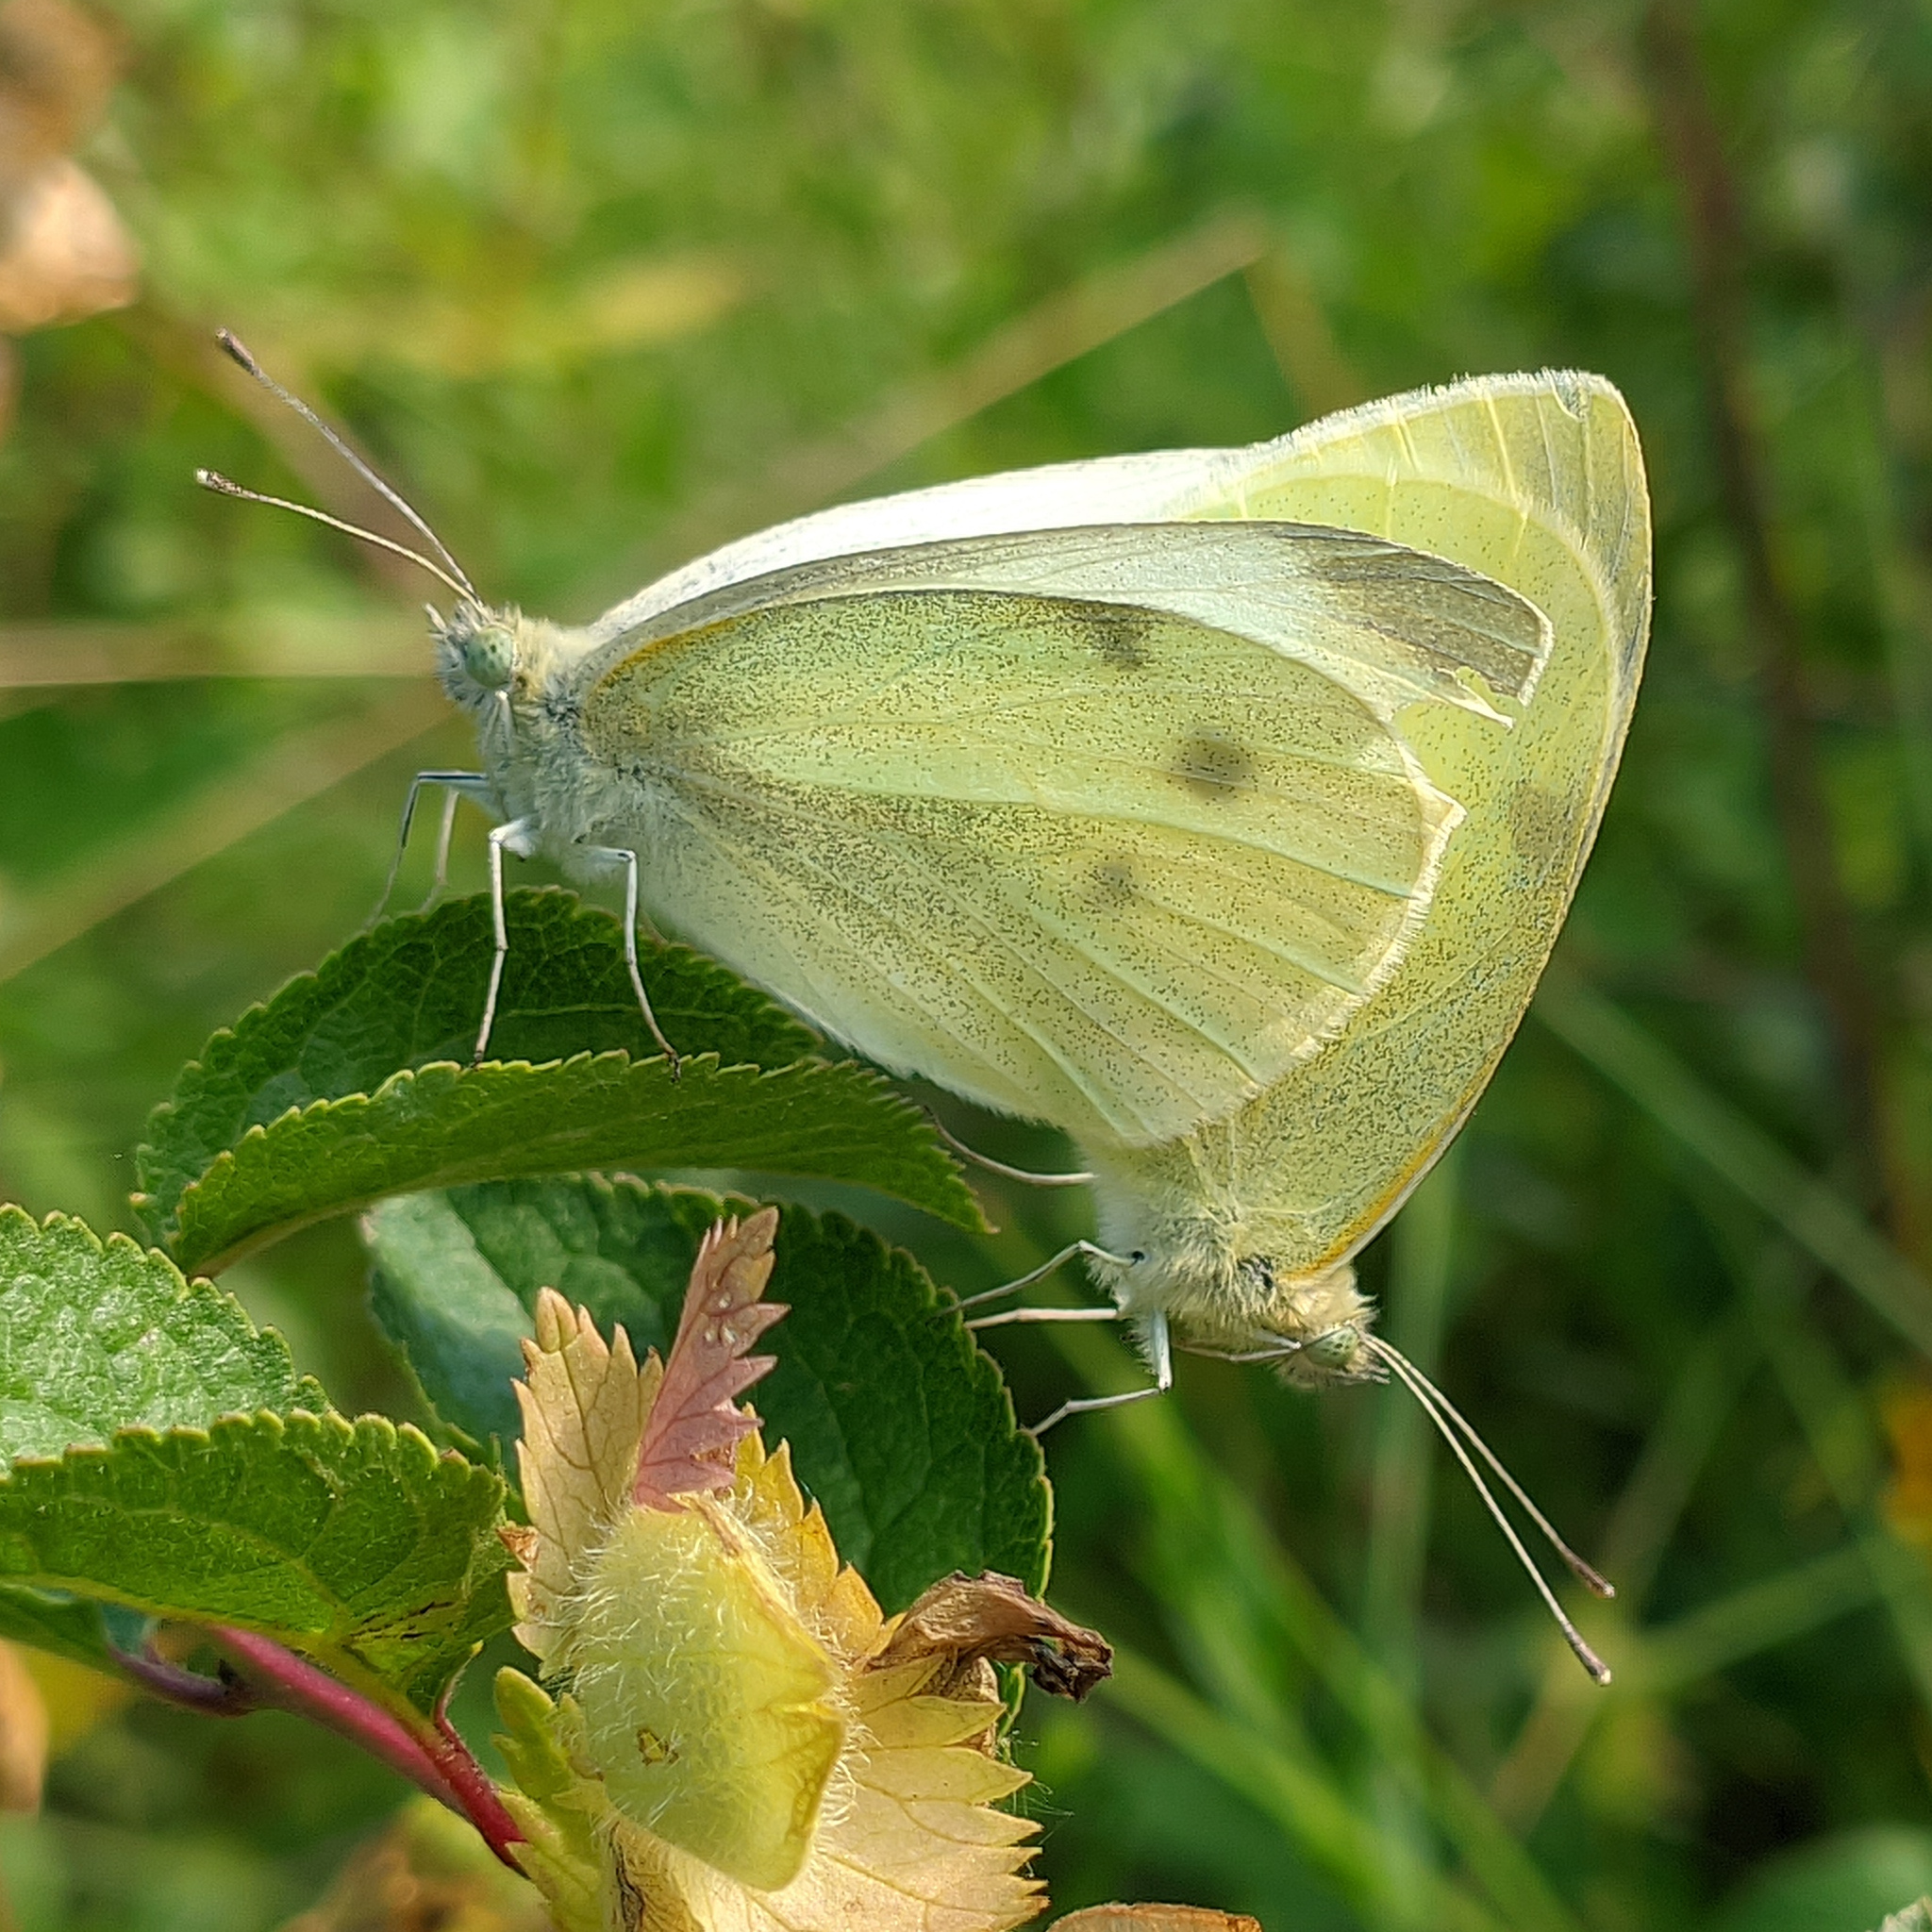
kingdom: Animalia
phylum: Arthropoda
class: Insecta
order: Lepidoptera
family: Pieridae
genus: Pieris
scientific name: Pieris rapae
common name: Small white
